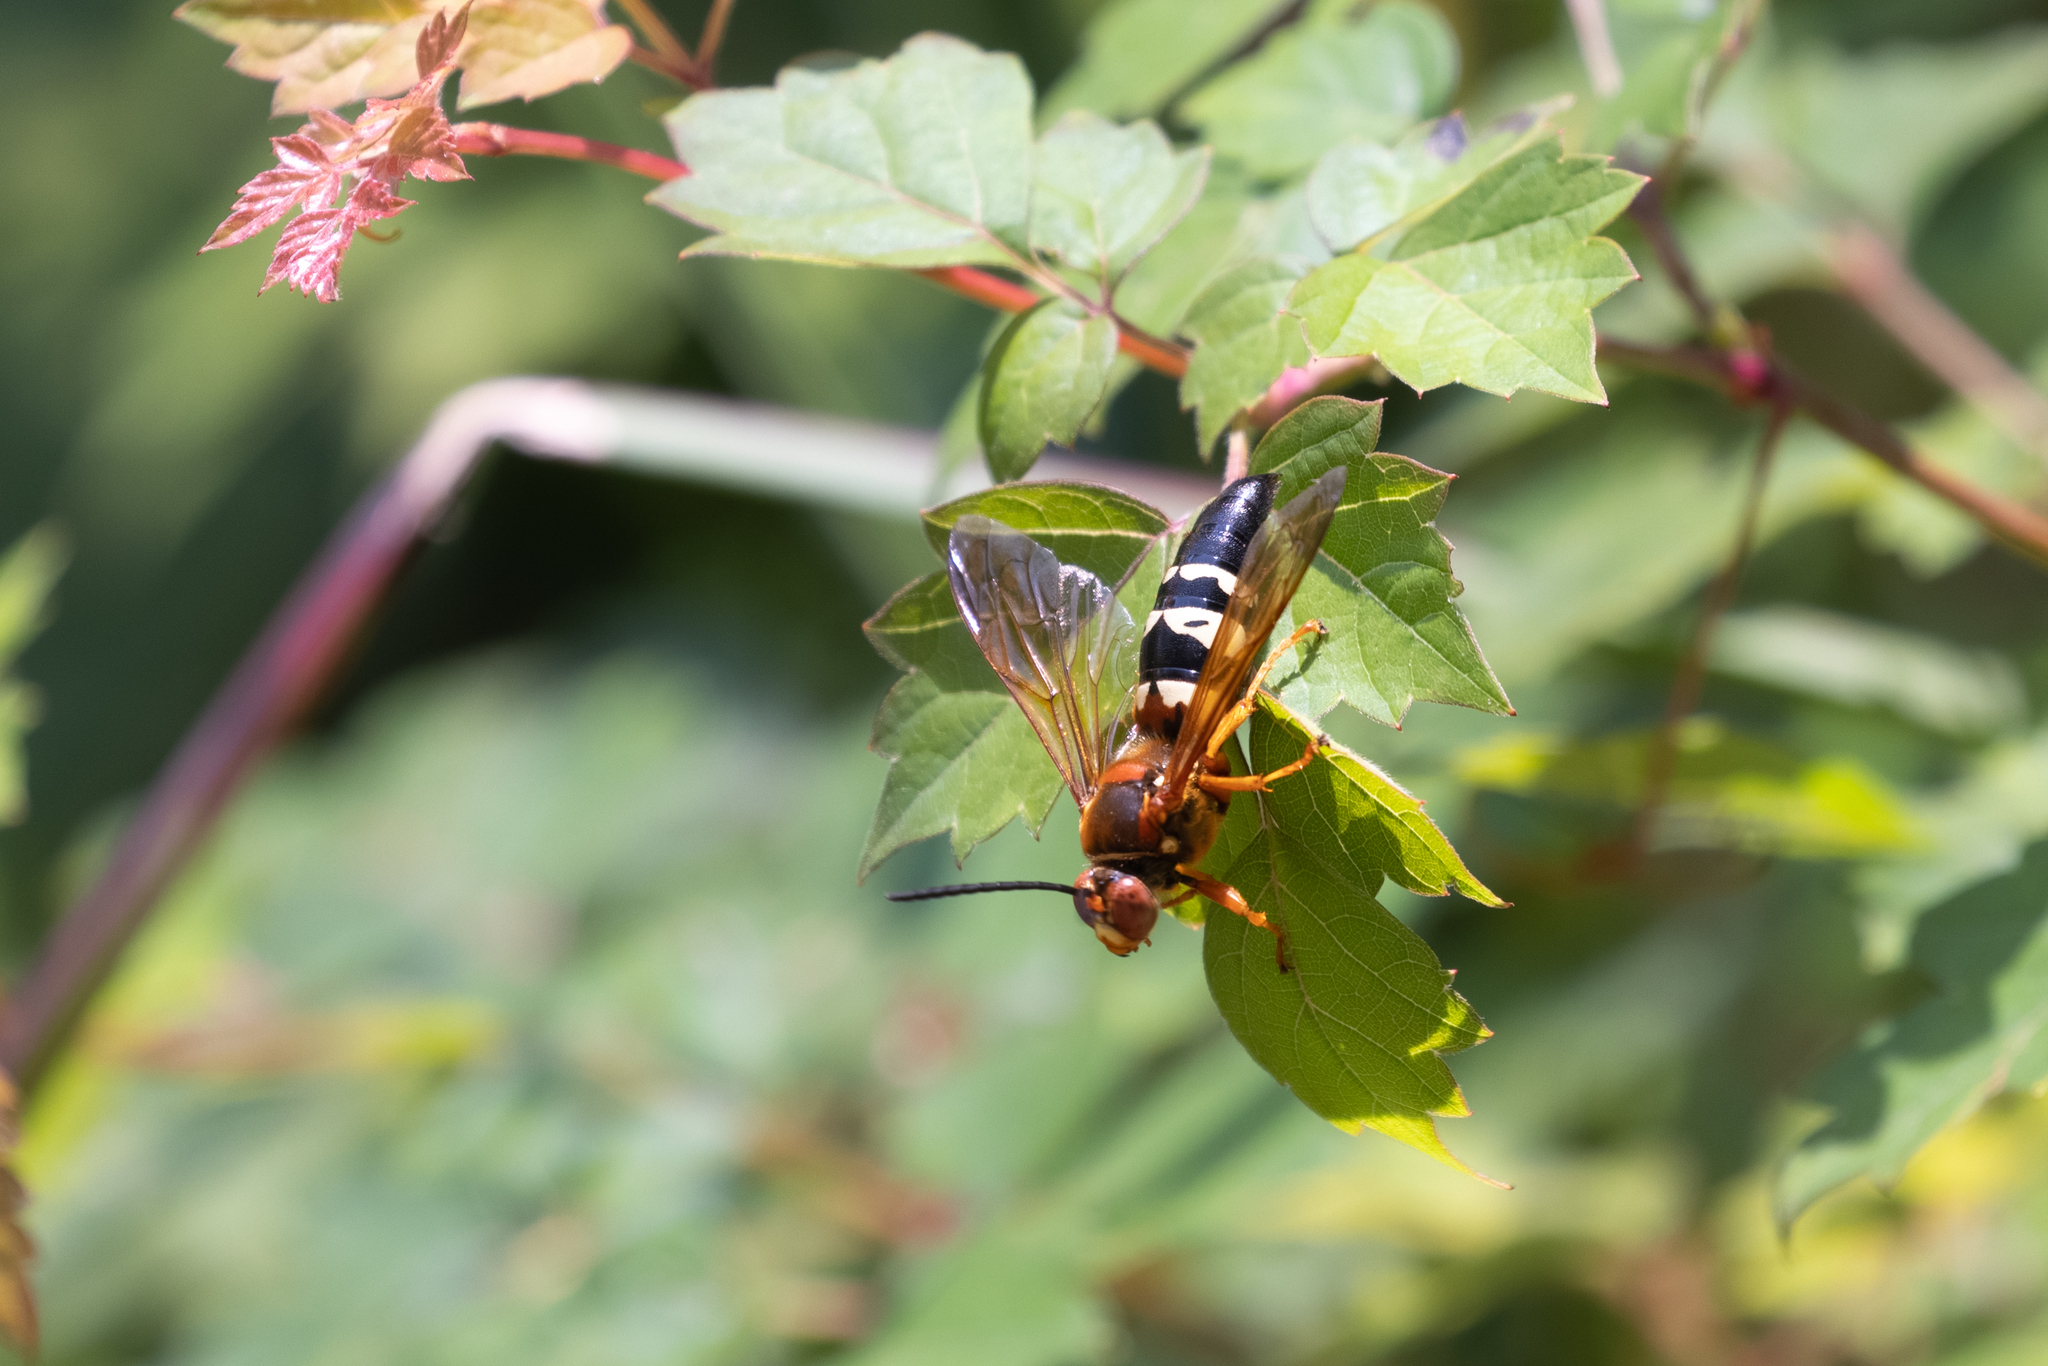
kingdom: Animalia
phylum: Arthropoda
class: Insecta
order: Hymenoptera
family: Crabronidae
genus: Sphecius
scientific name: Sphecius speciosus
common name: Cicada killer
